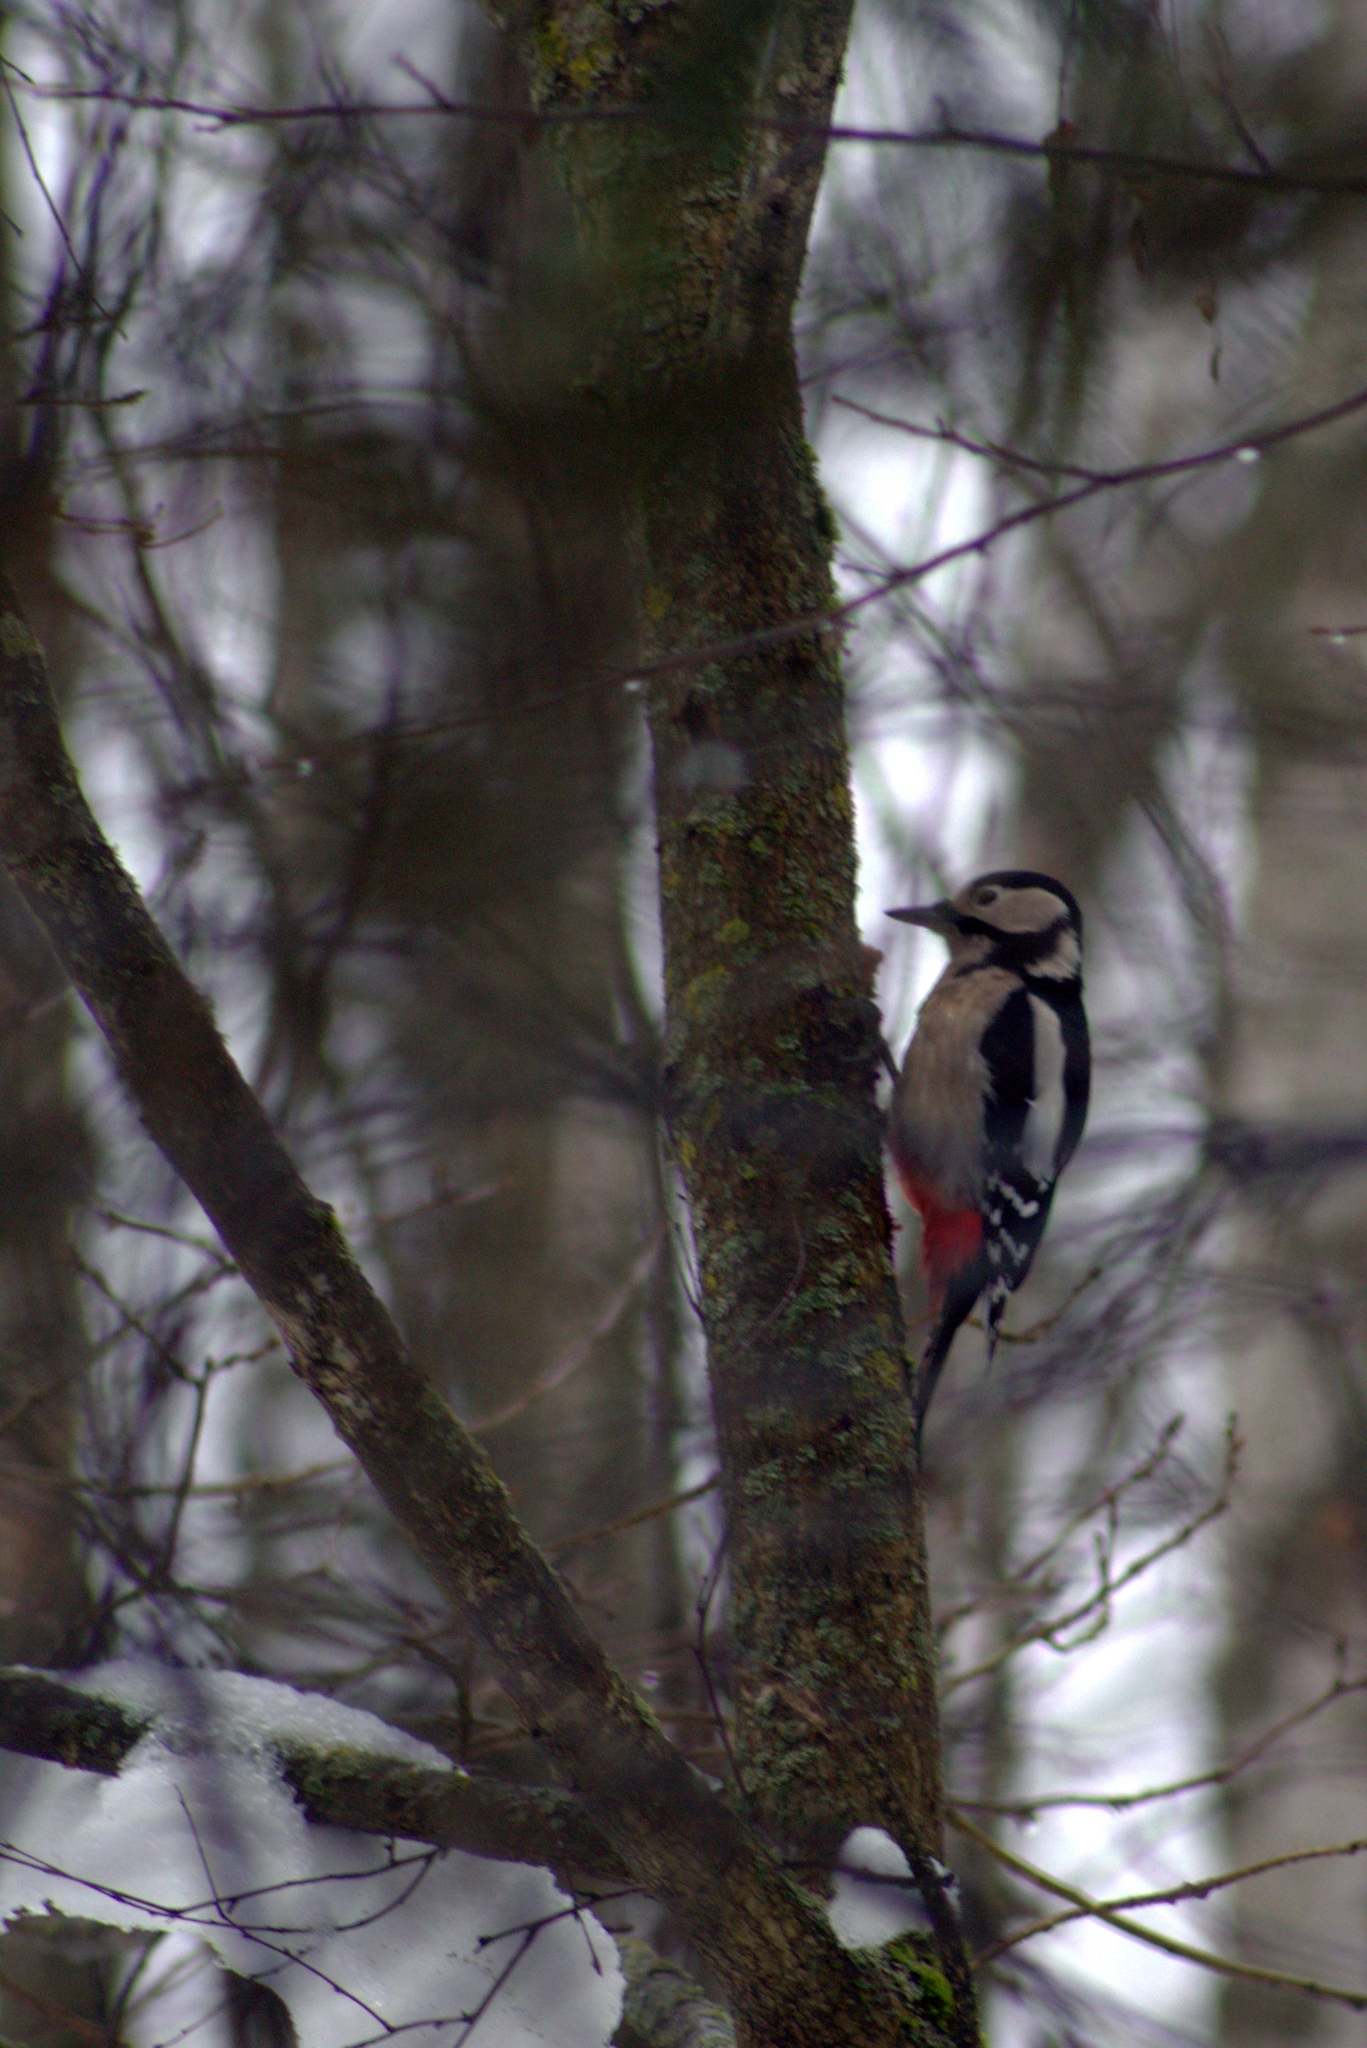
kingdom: Animalia
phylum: Chordata
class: Aves
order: Piciformes
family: Picidae
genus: Dendrocopos
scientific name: Dendrocopos major
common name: Great spotted woodpecker
